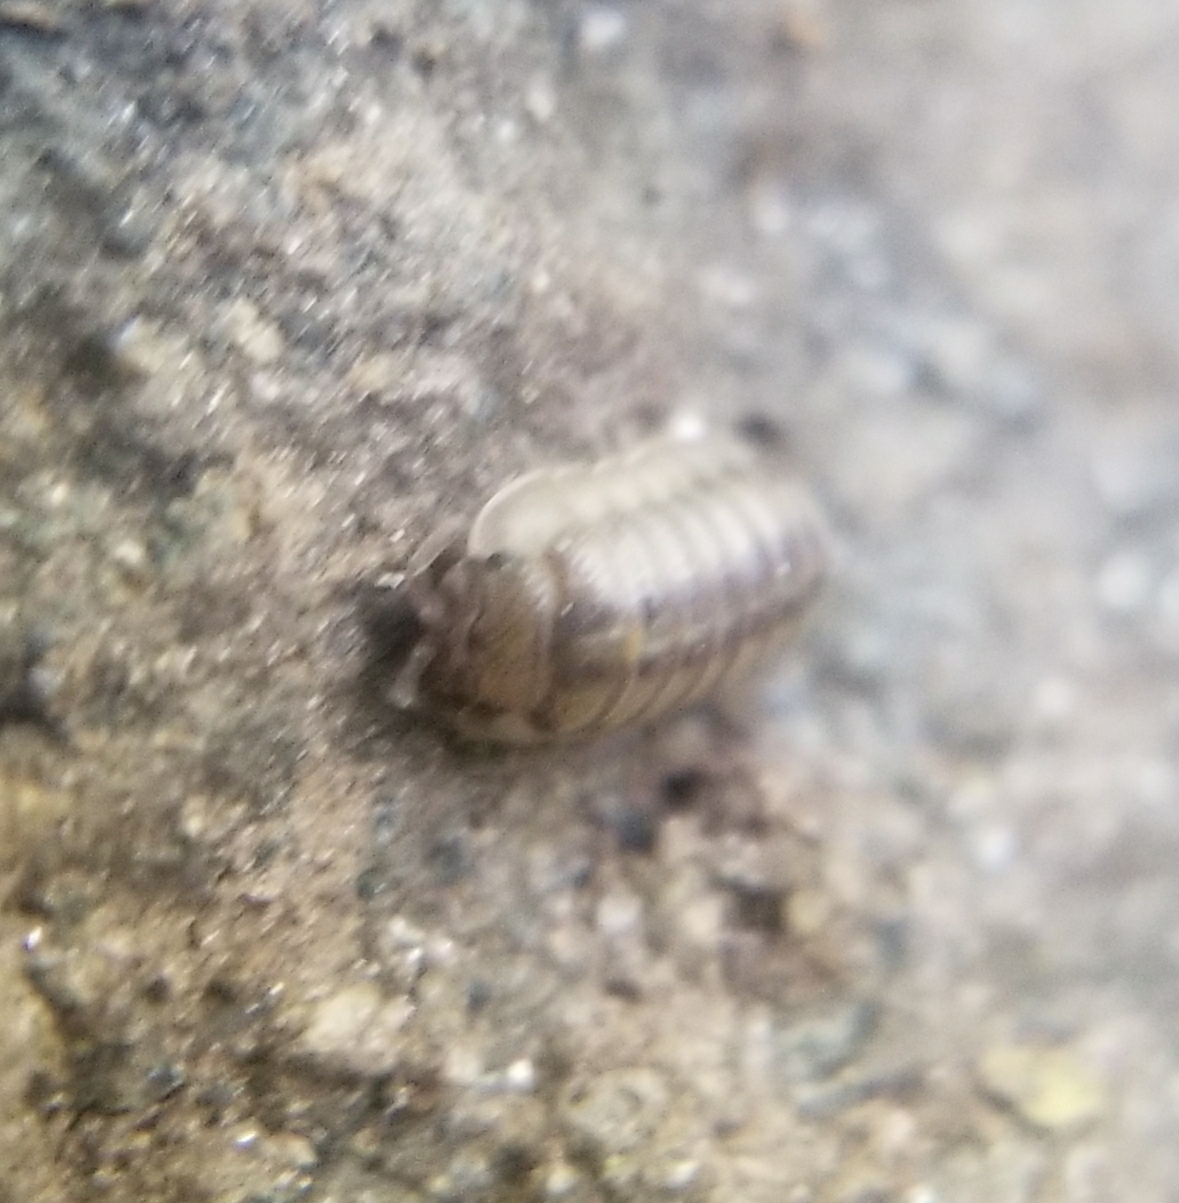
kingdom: Animalia
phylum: Arthropoda
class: Malacostraca
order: Isopoda
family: Armadillidiidae
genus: Armadillidium
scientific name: Armadillidium nasatum
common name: Isopod
